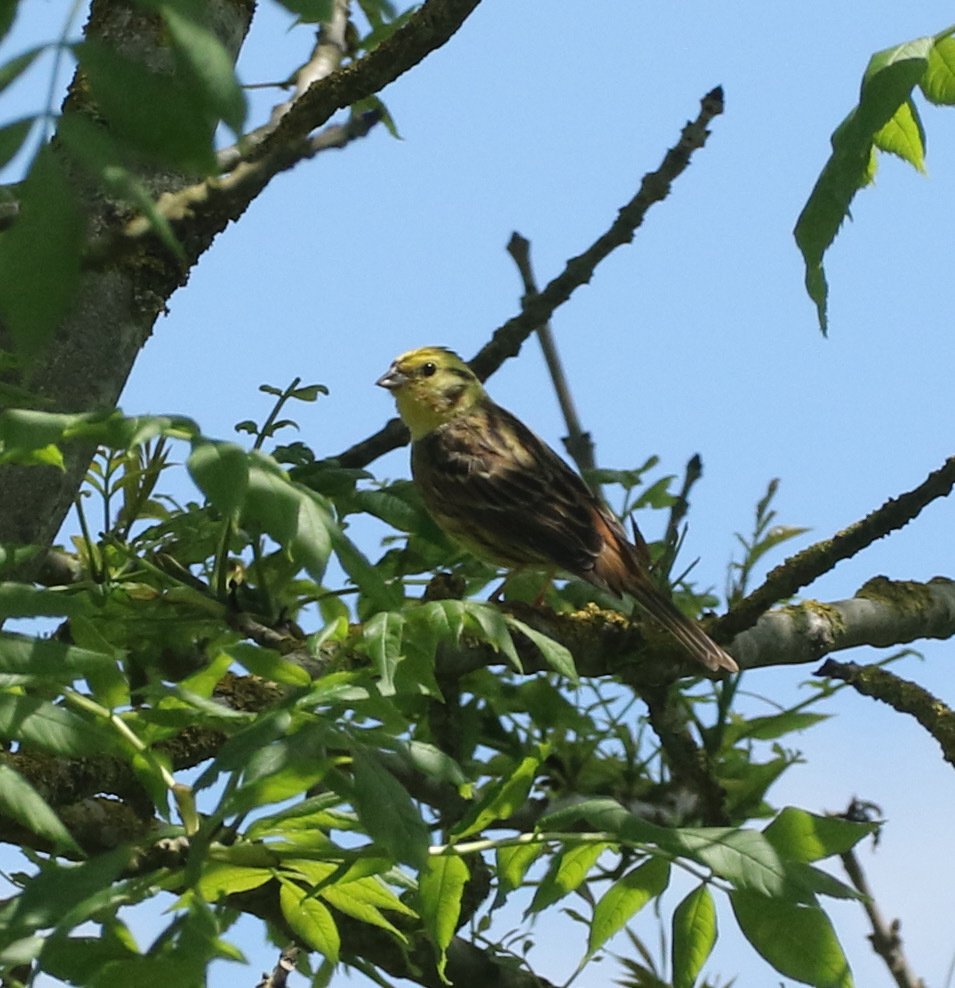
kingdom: Animalia
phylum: Chordata
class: Aves
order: Passeriformes
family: Emberizidae
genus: Emberiza
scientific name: Emberiza citrinella
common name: Yellowhammer
